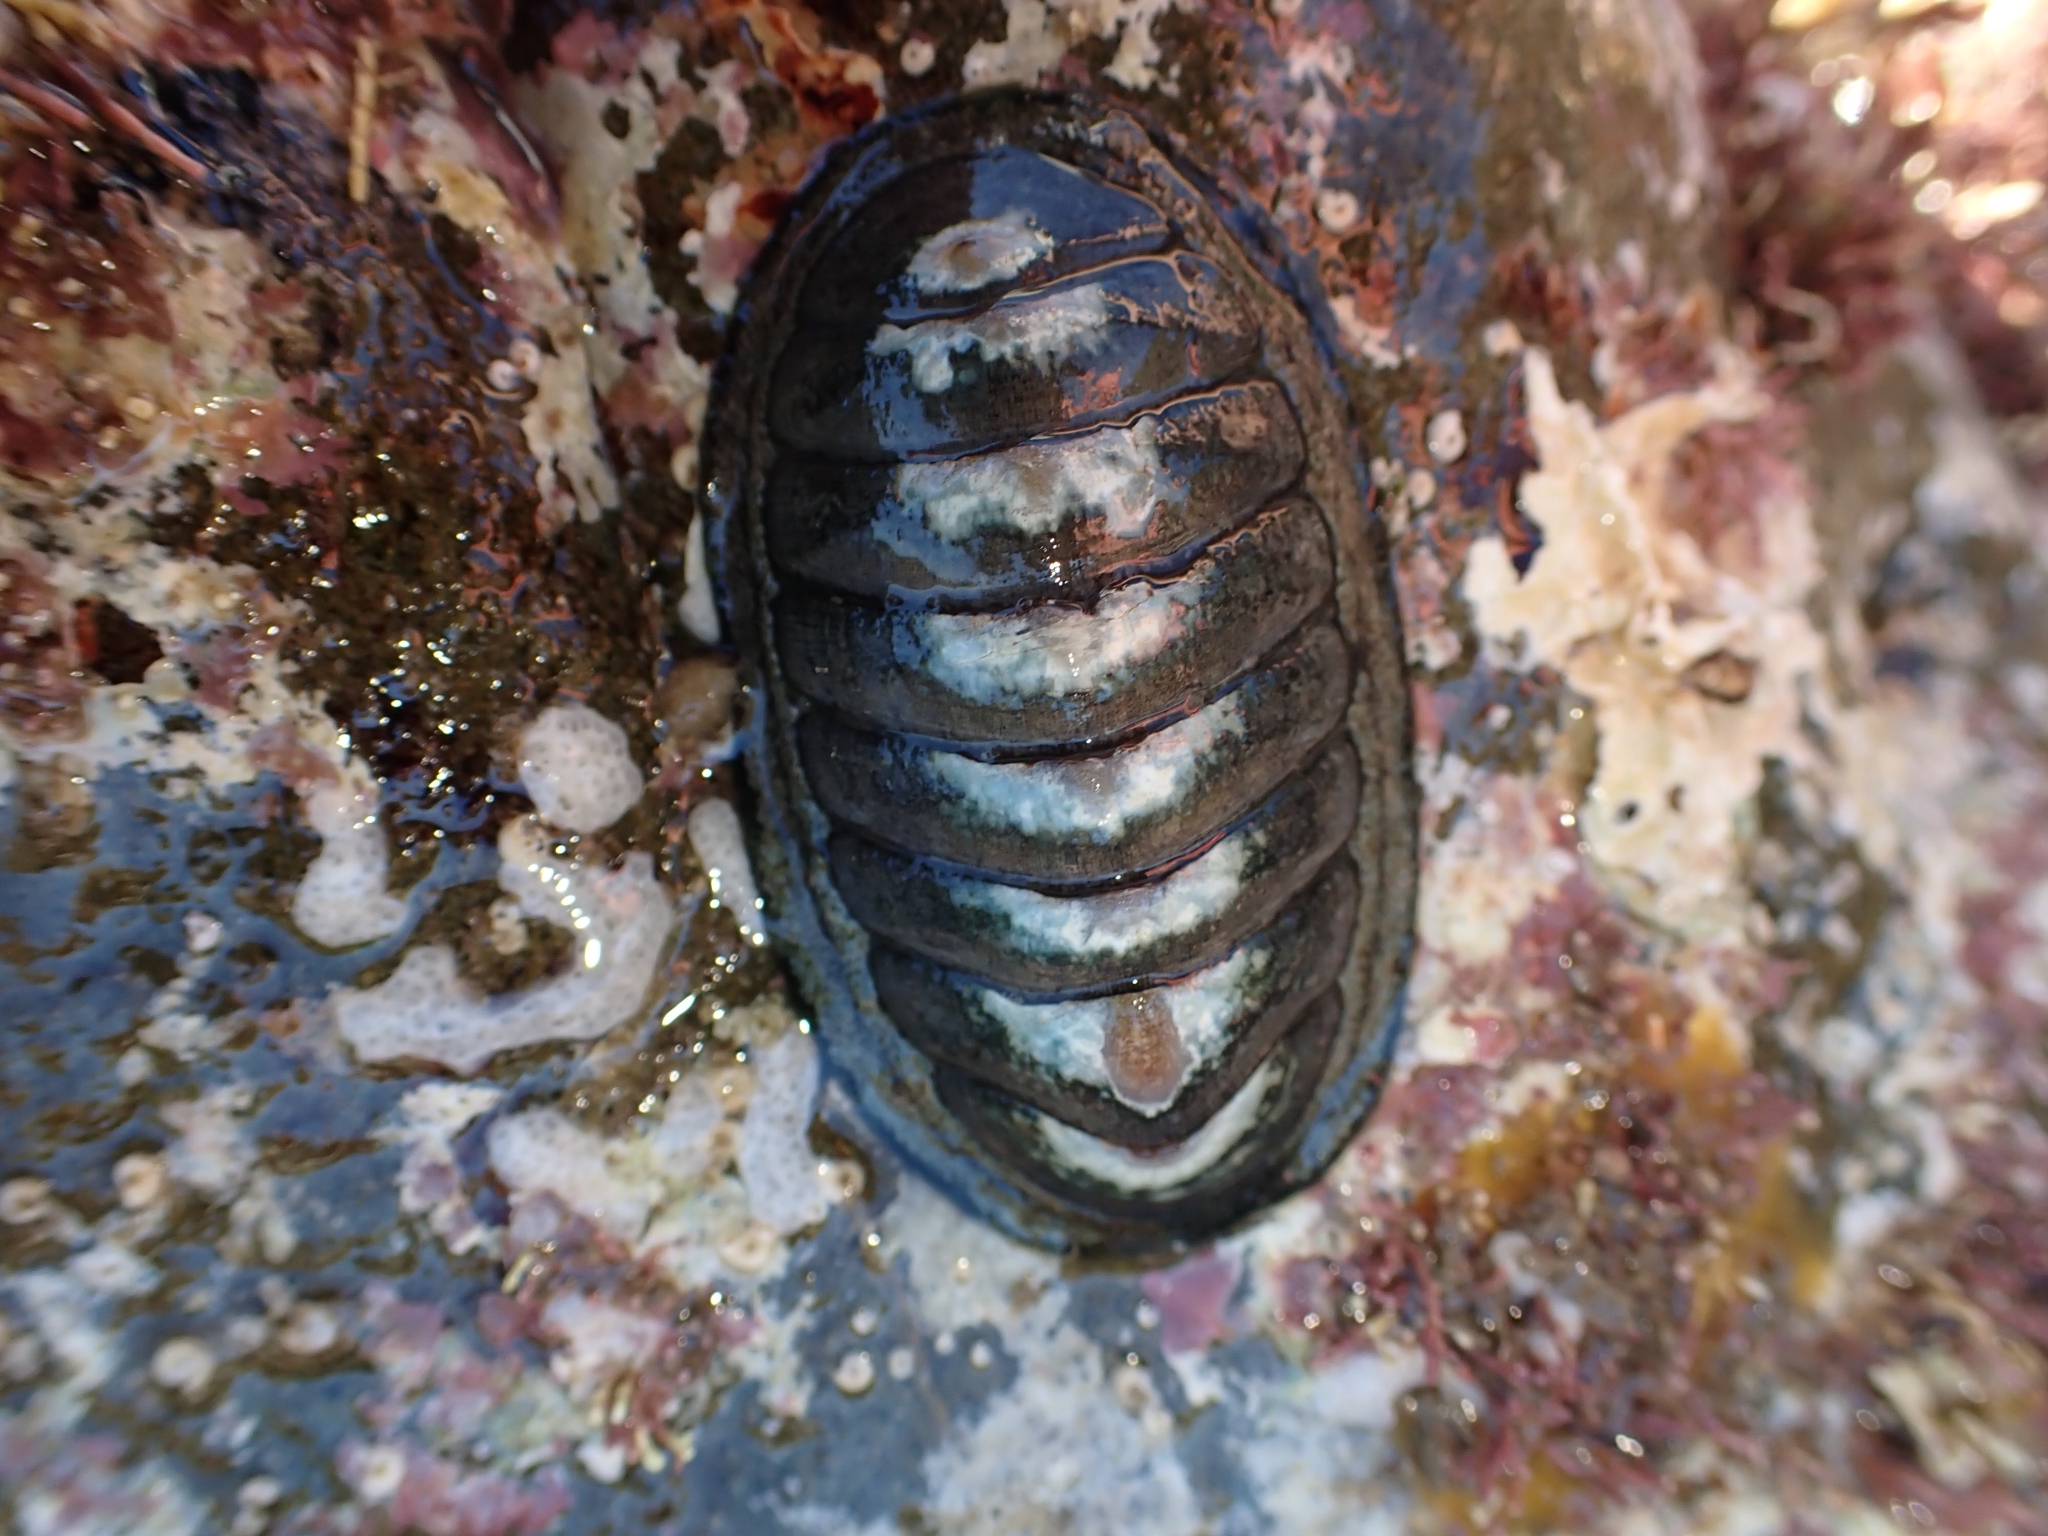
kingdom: Animalia
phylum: Mollusca
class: Polyplacophora
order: Chitonida
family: Chitonidae
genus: Chiton
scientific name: Chiton glaucus
